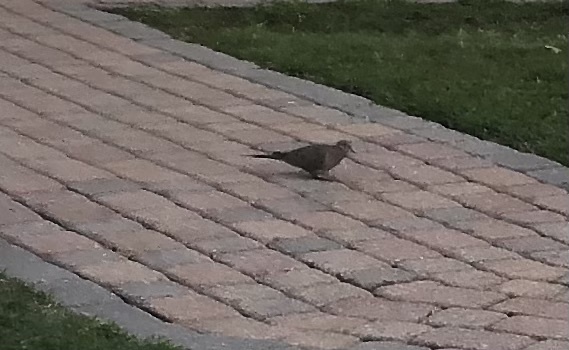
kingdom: Animalia
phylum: Chordata
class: Aves
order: Columbiformes
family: Columbidae
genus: Zenaida
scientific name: Zenaida macroura
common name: Mourning dove
